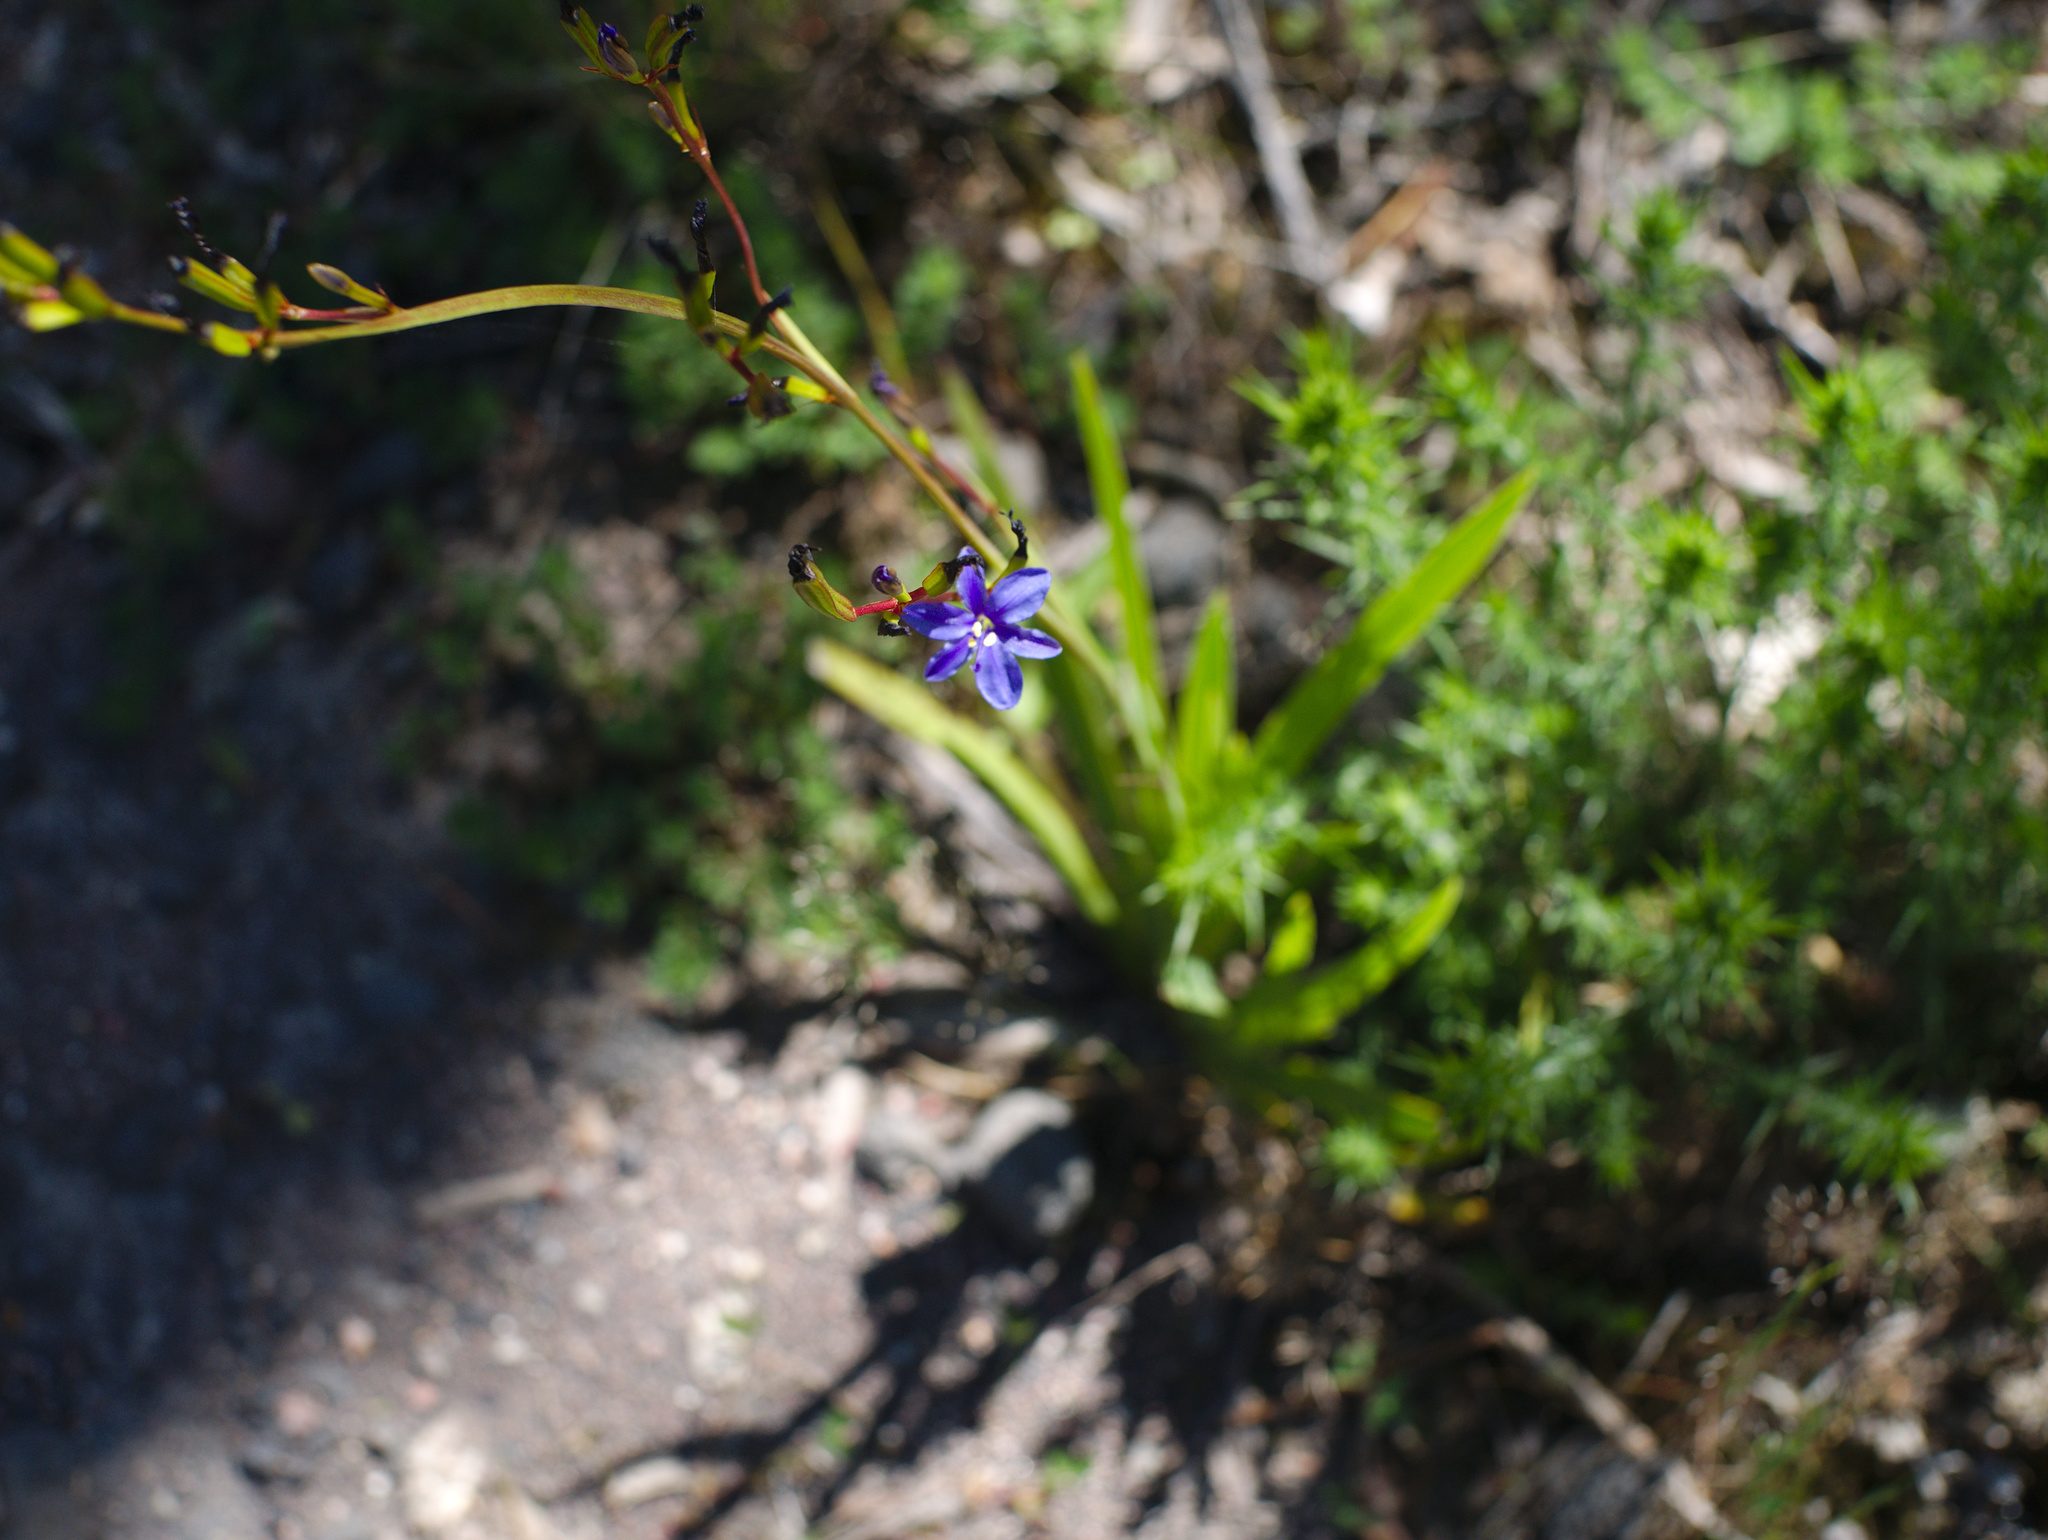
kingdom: Plantae
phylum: Tracheophyta
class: Liliopsida
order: Asparagales
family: Iridaceae
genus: Aristea
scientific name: Aristea ecklonii
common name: Blue corn-lily
